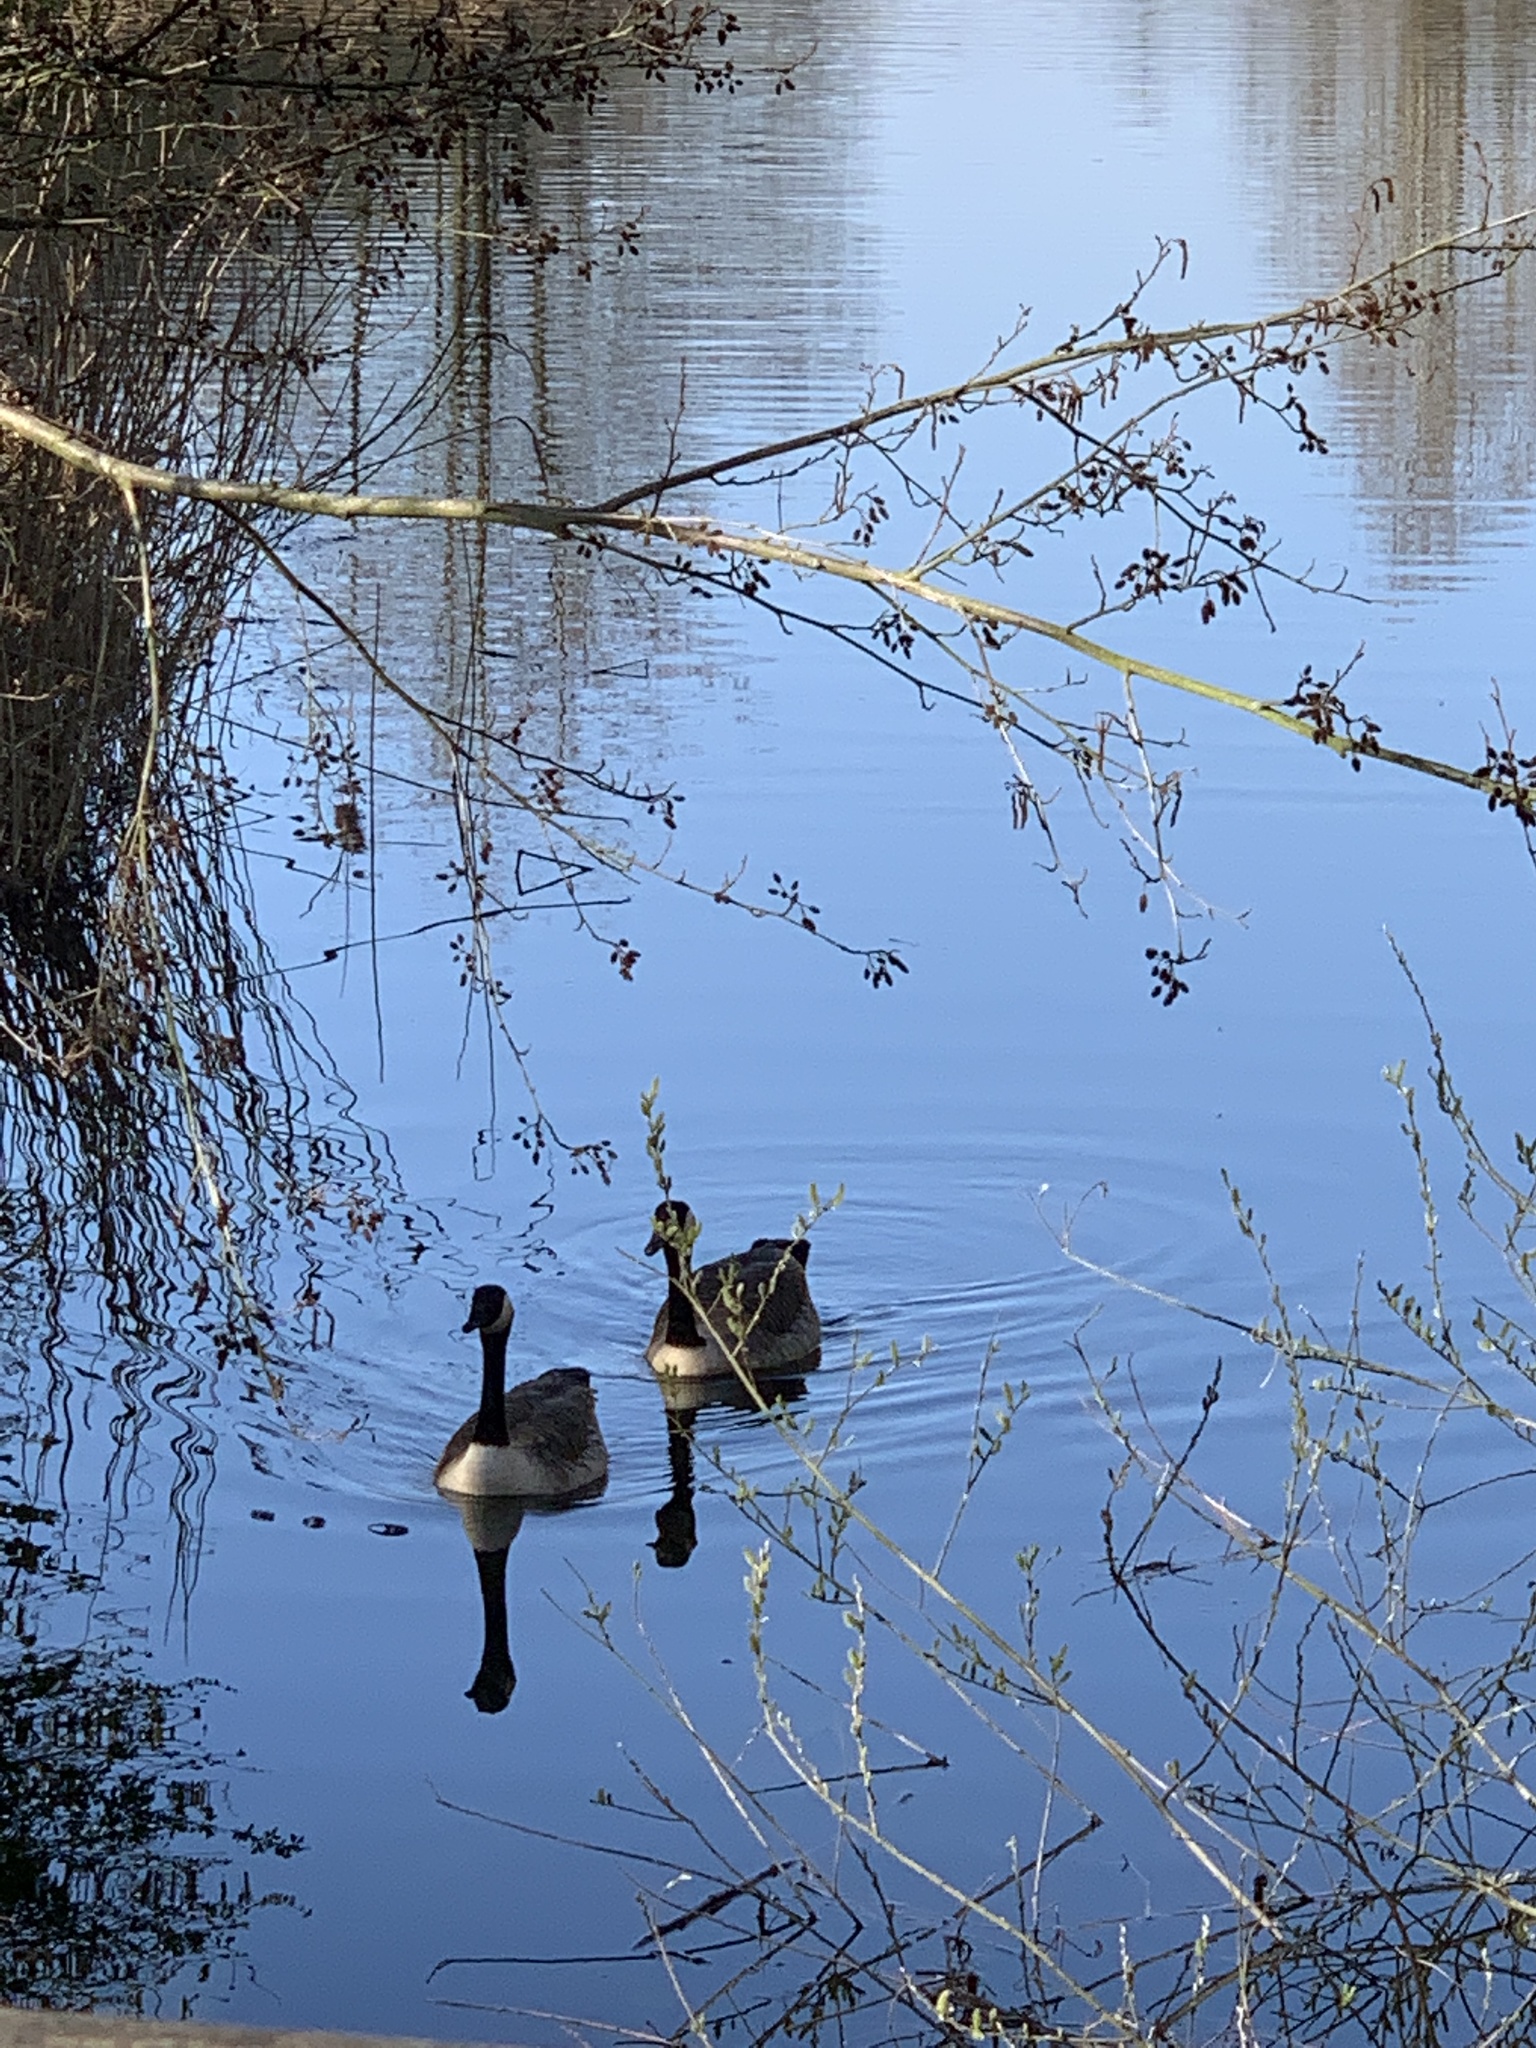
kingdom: Animalia
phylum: Chordata
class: Aves
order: Anseriformes
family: Anatidae
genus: Branta
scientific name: Branta canadensis
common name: Canada goose
